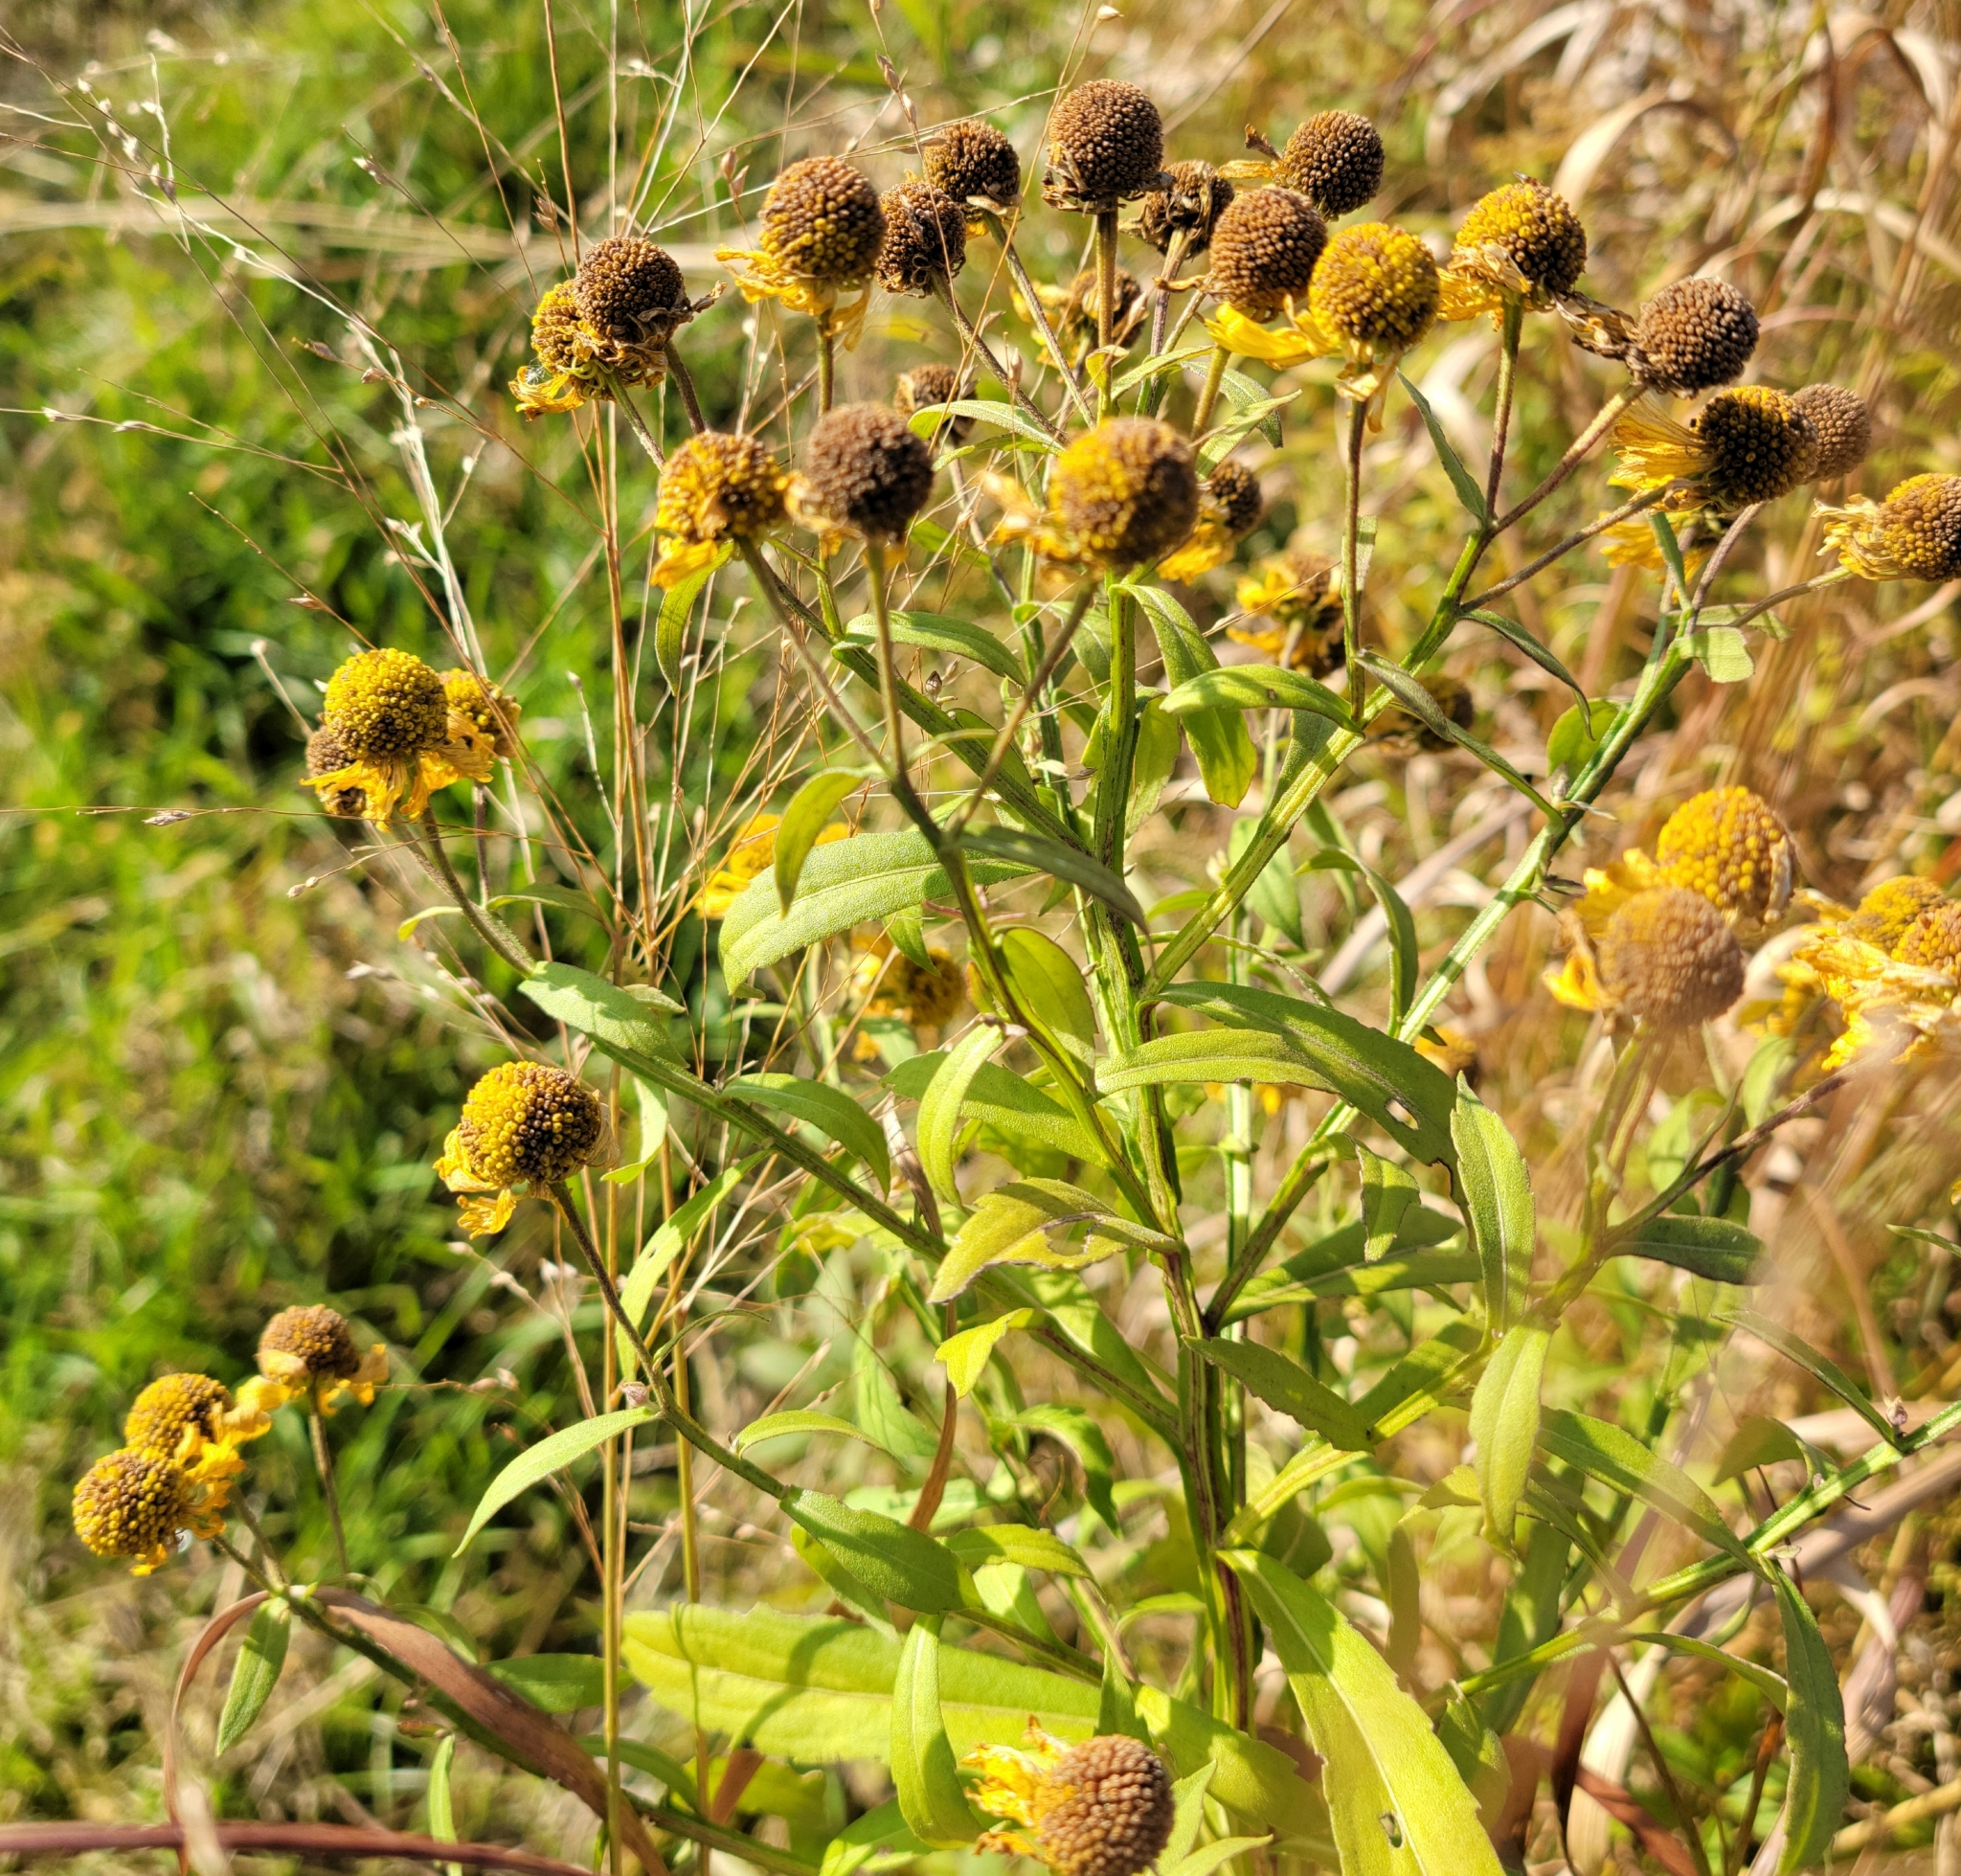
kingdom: Plantae
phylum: Tracheophyta
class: Magnoliopsida
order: Asterales
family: Asteraceae
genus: Helenium
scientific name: Helenium autumnale
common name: Sneezeweed
